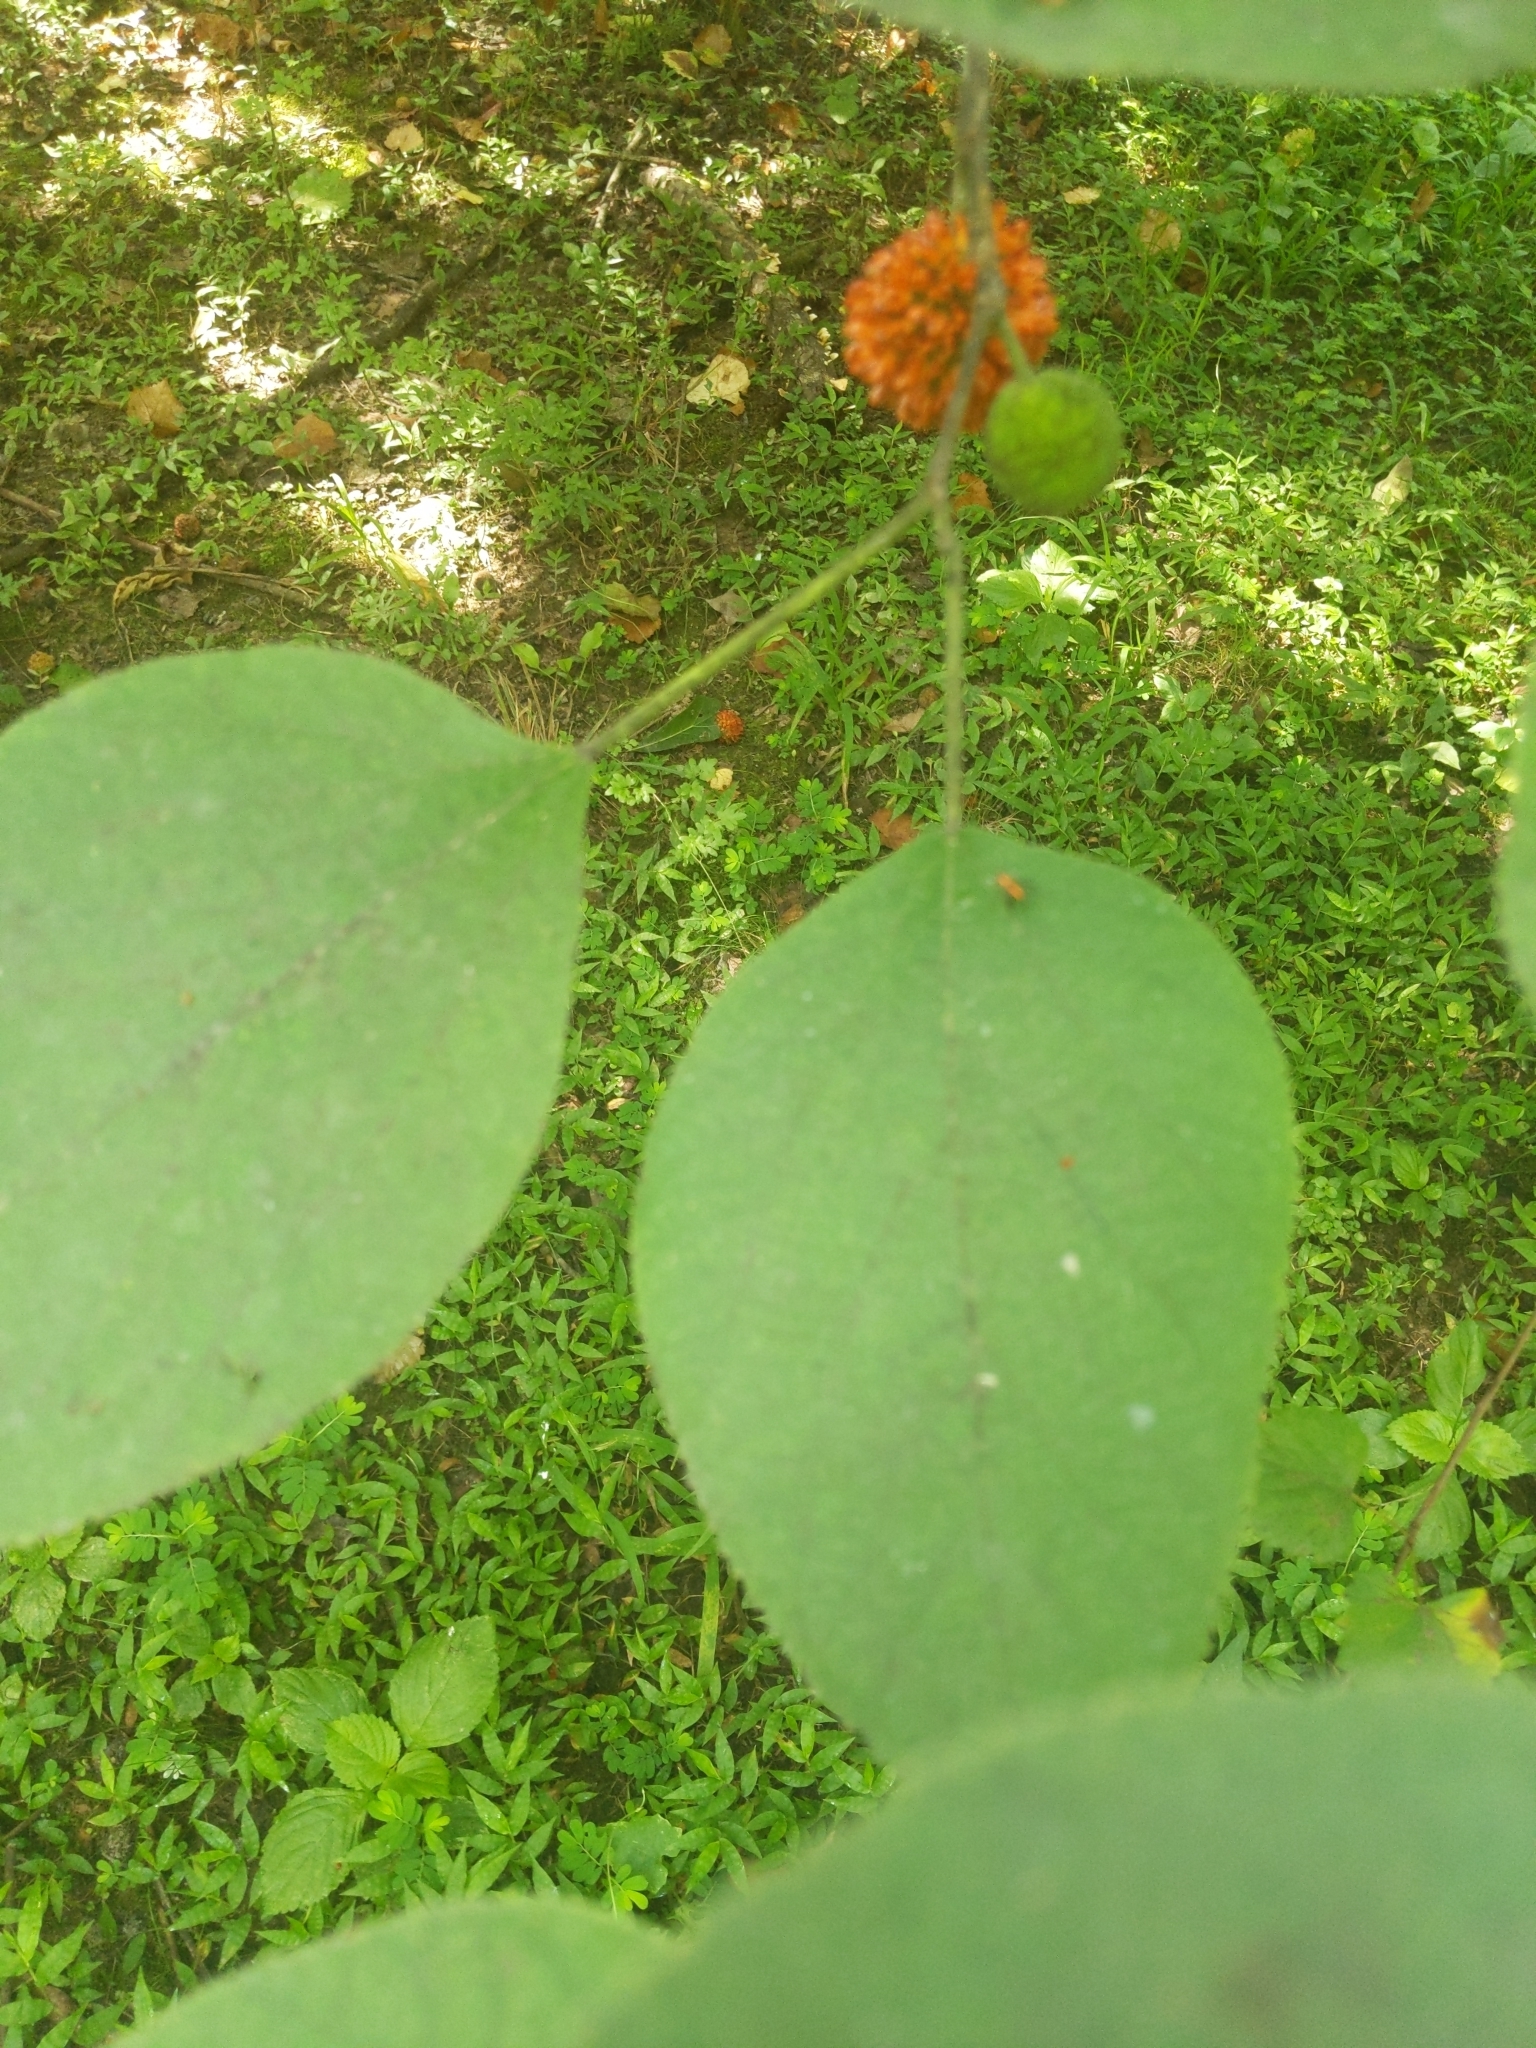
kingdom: Plantae
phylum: Tracheophyta
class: Magnoliopsida
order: Rosales
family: Moraceae
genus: Broussonetia
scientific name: Broussonetia papyrifera
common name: Paper mulberry
